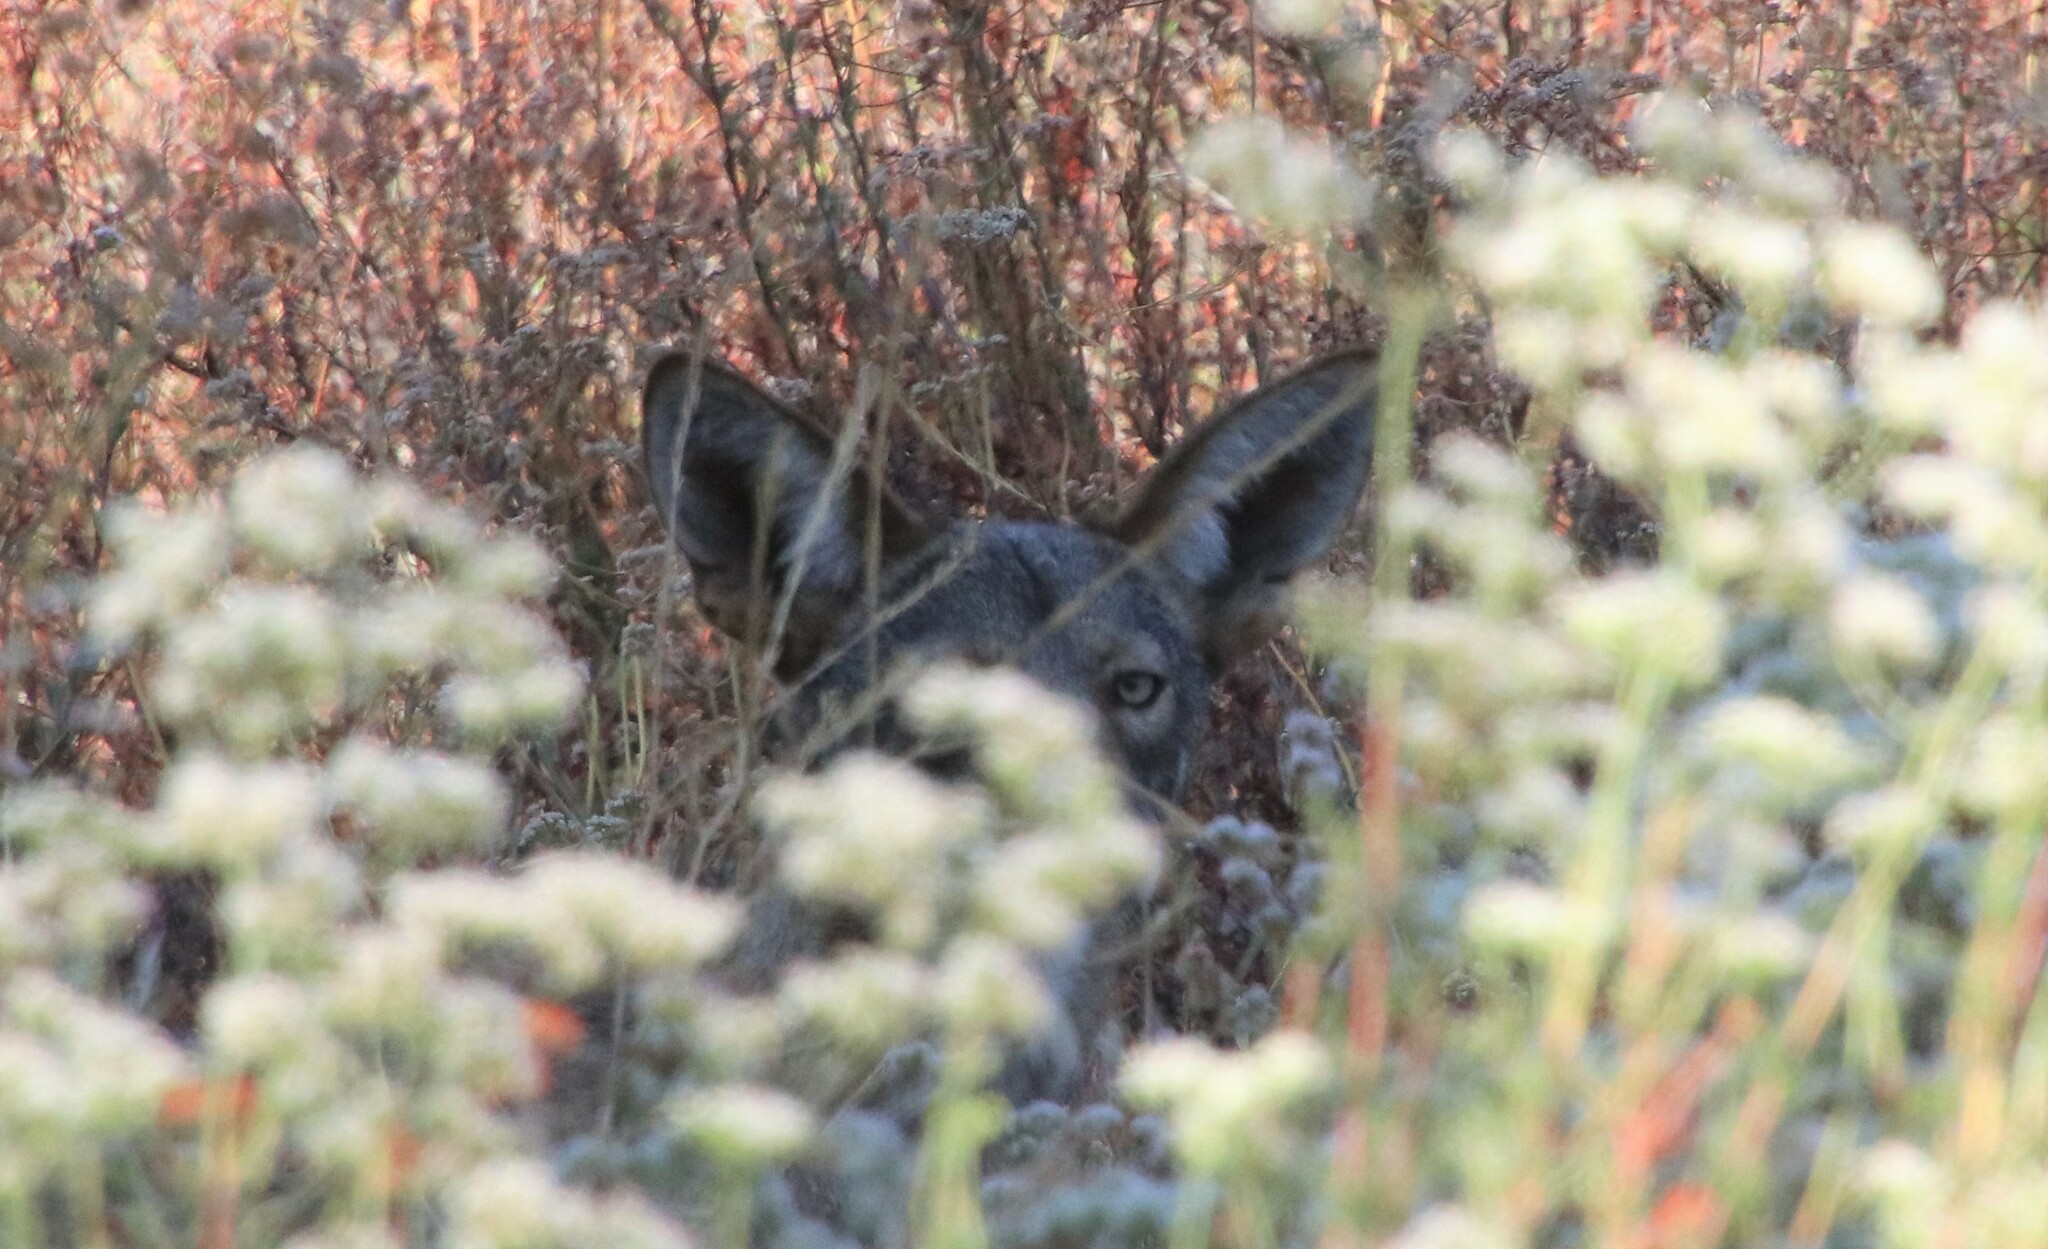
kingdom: Animalia
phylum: Chordata
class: Mammalia
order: Carnivora
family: Canidae
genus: Canis
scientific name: Canis latrans
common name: Coyote
